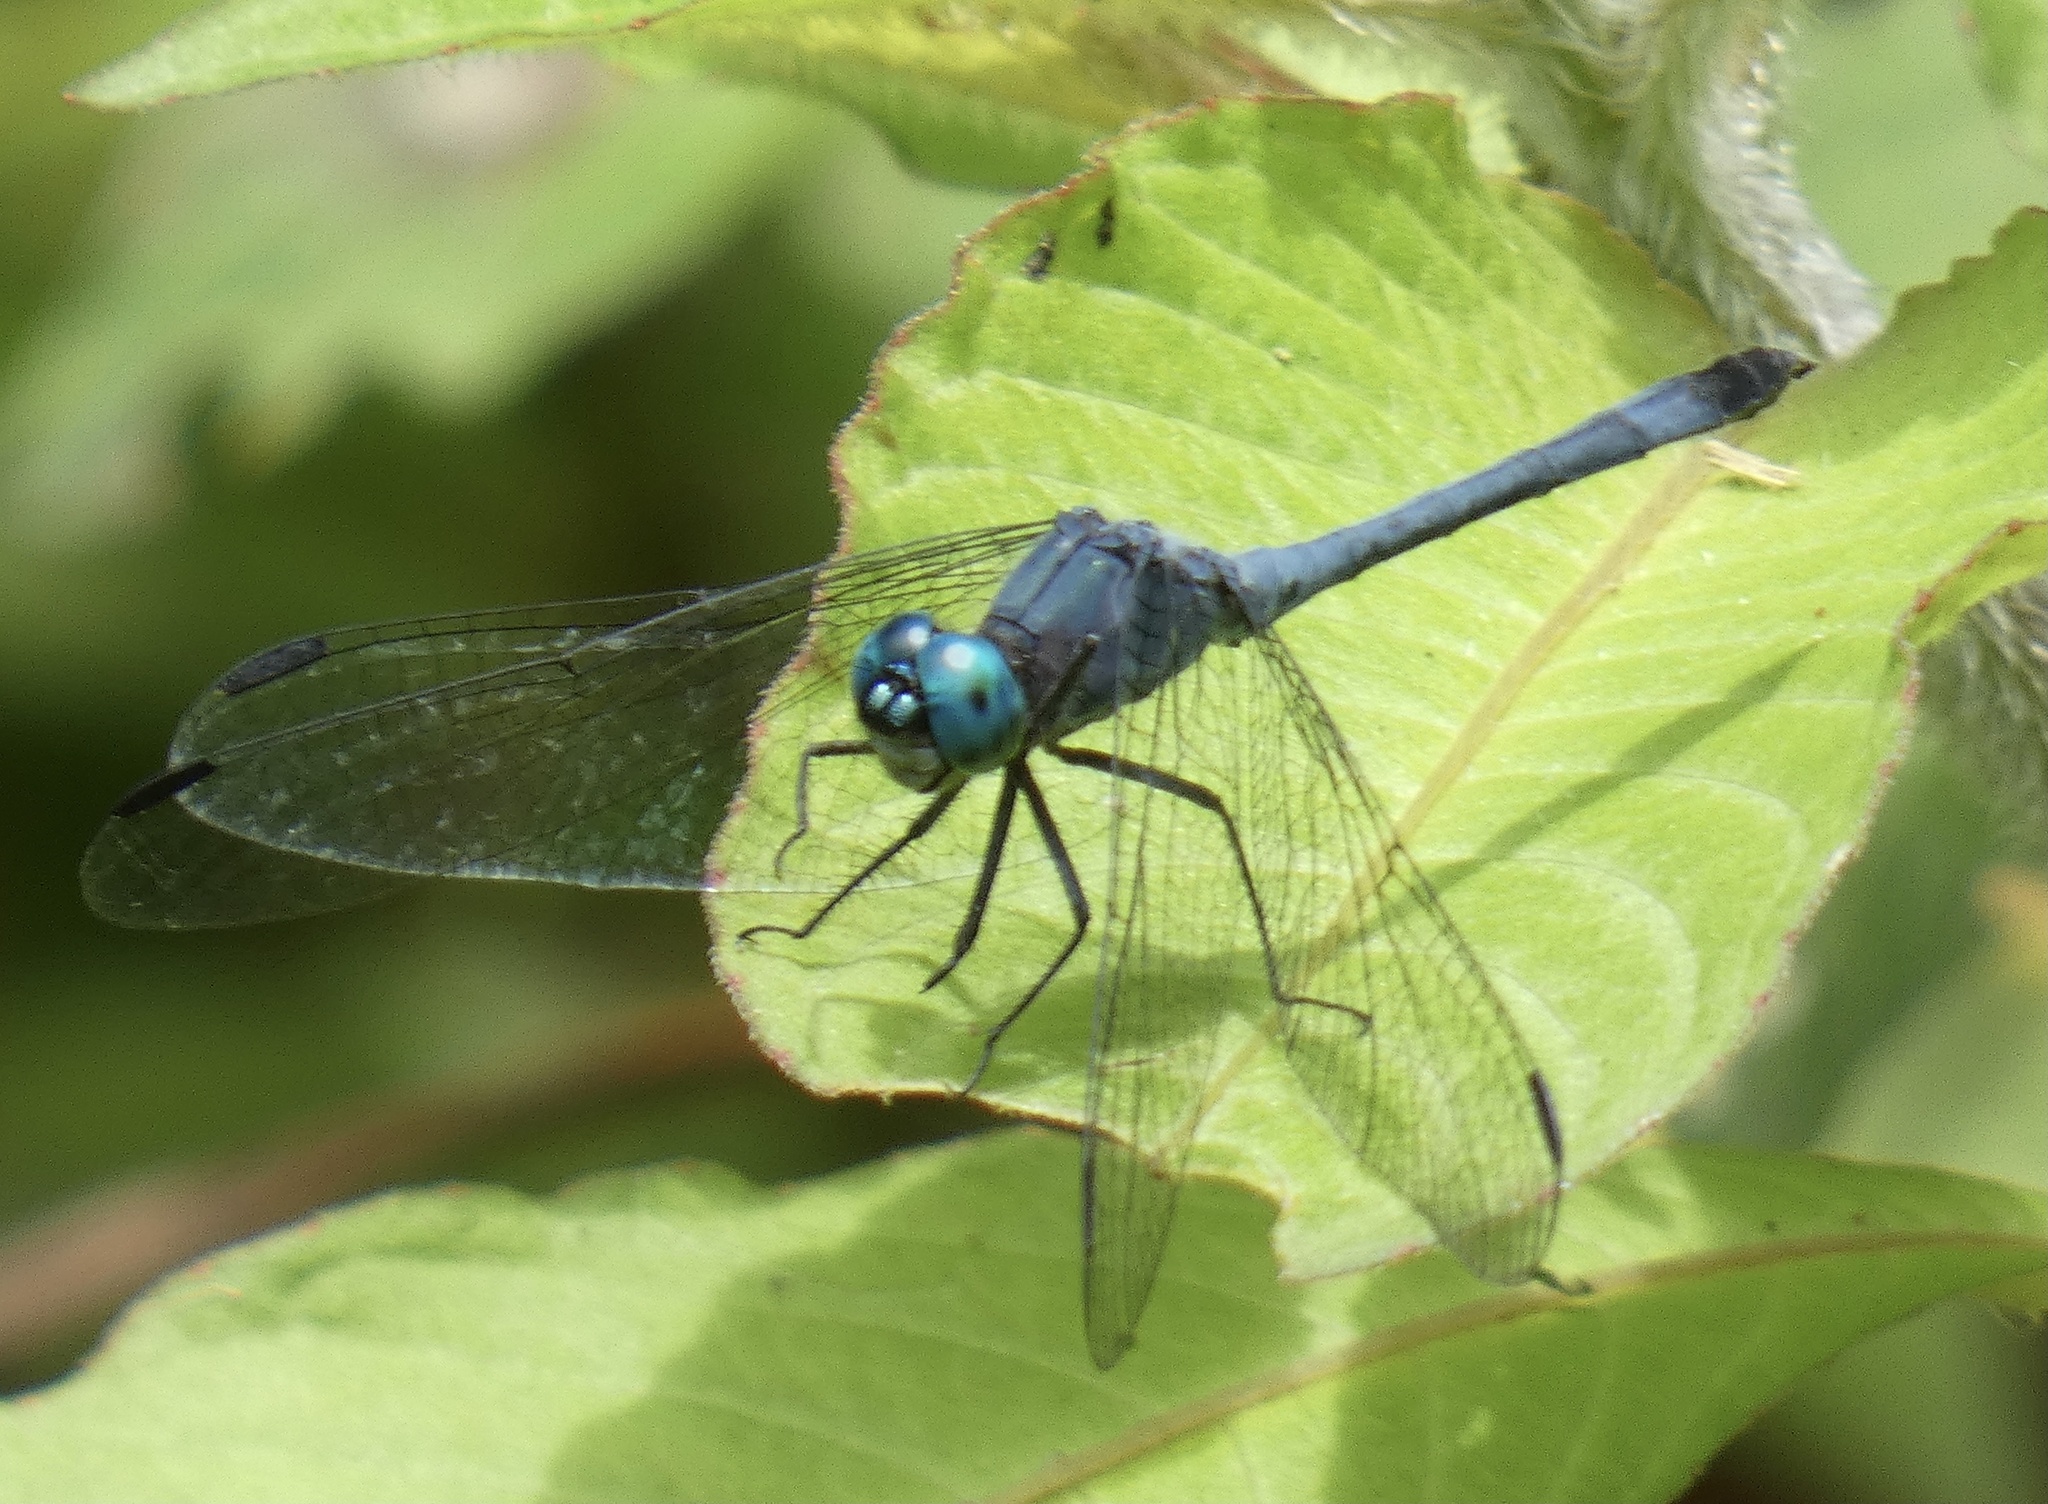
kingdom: Animalia
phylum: Arthropoda
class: Insecta
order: Odonata
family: Libellulidae
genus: Micrathyria
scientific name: Micrathyria athenais
